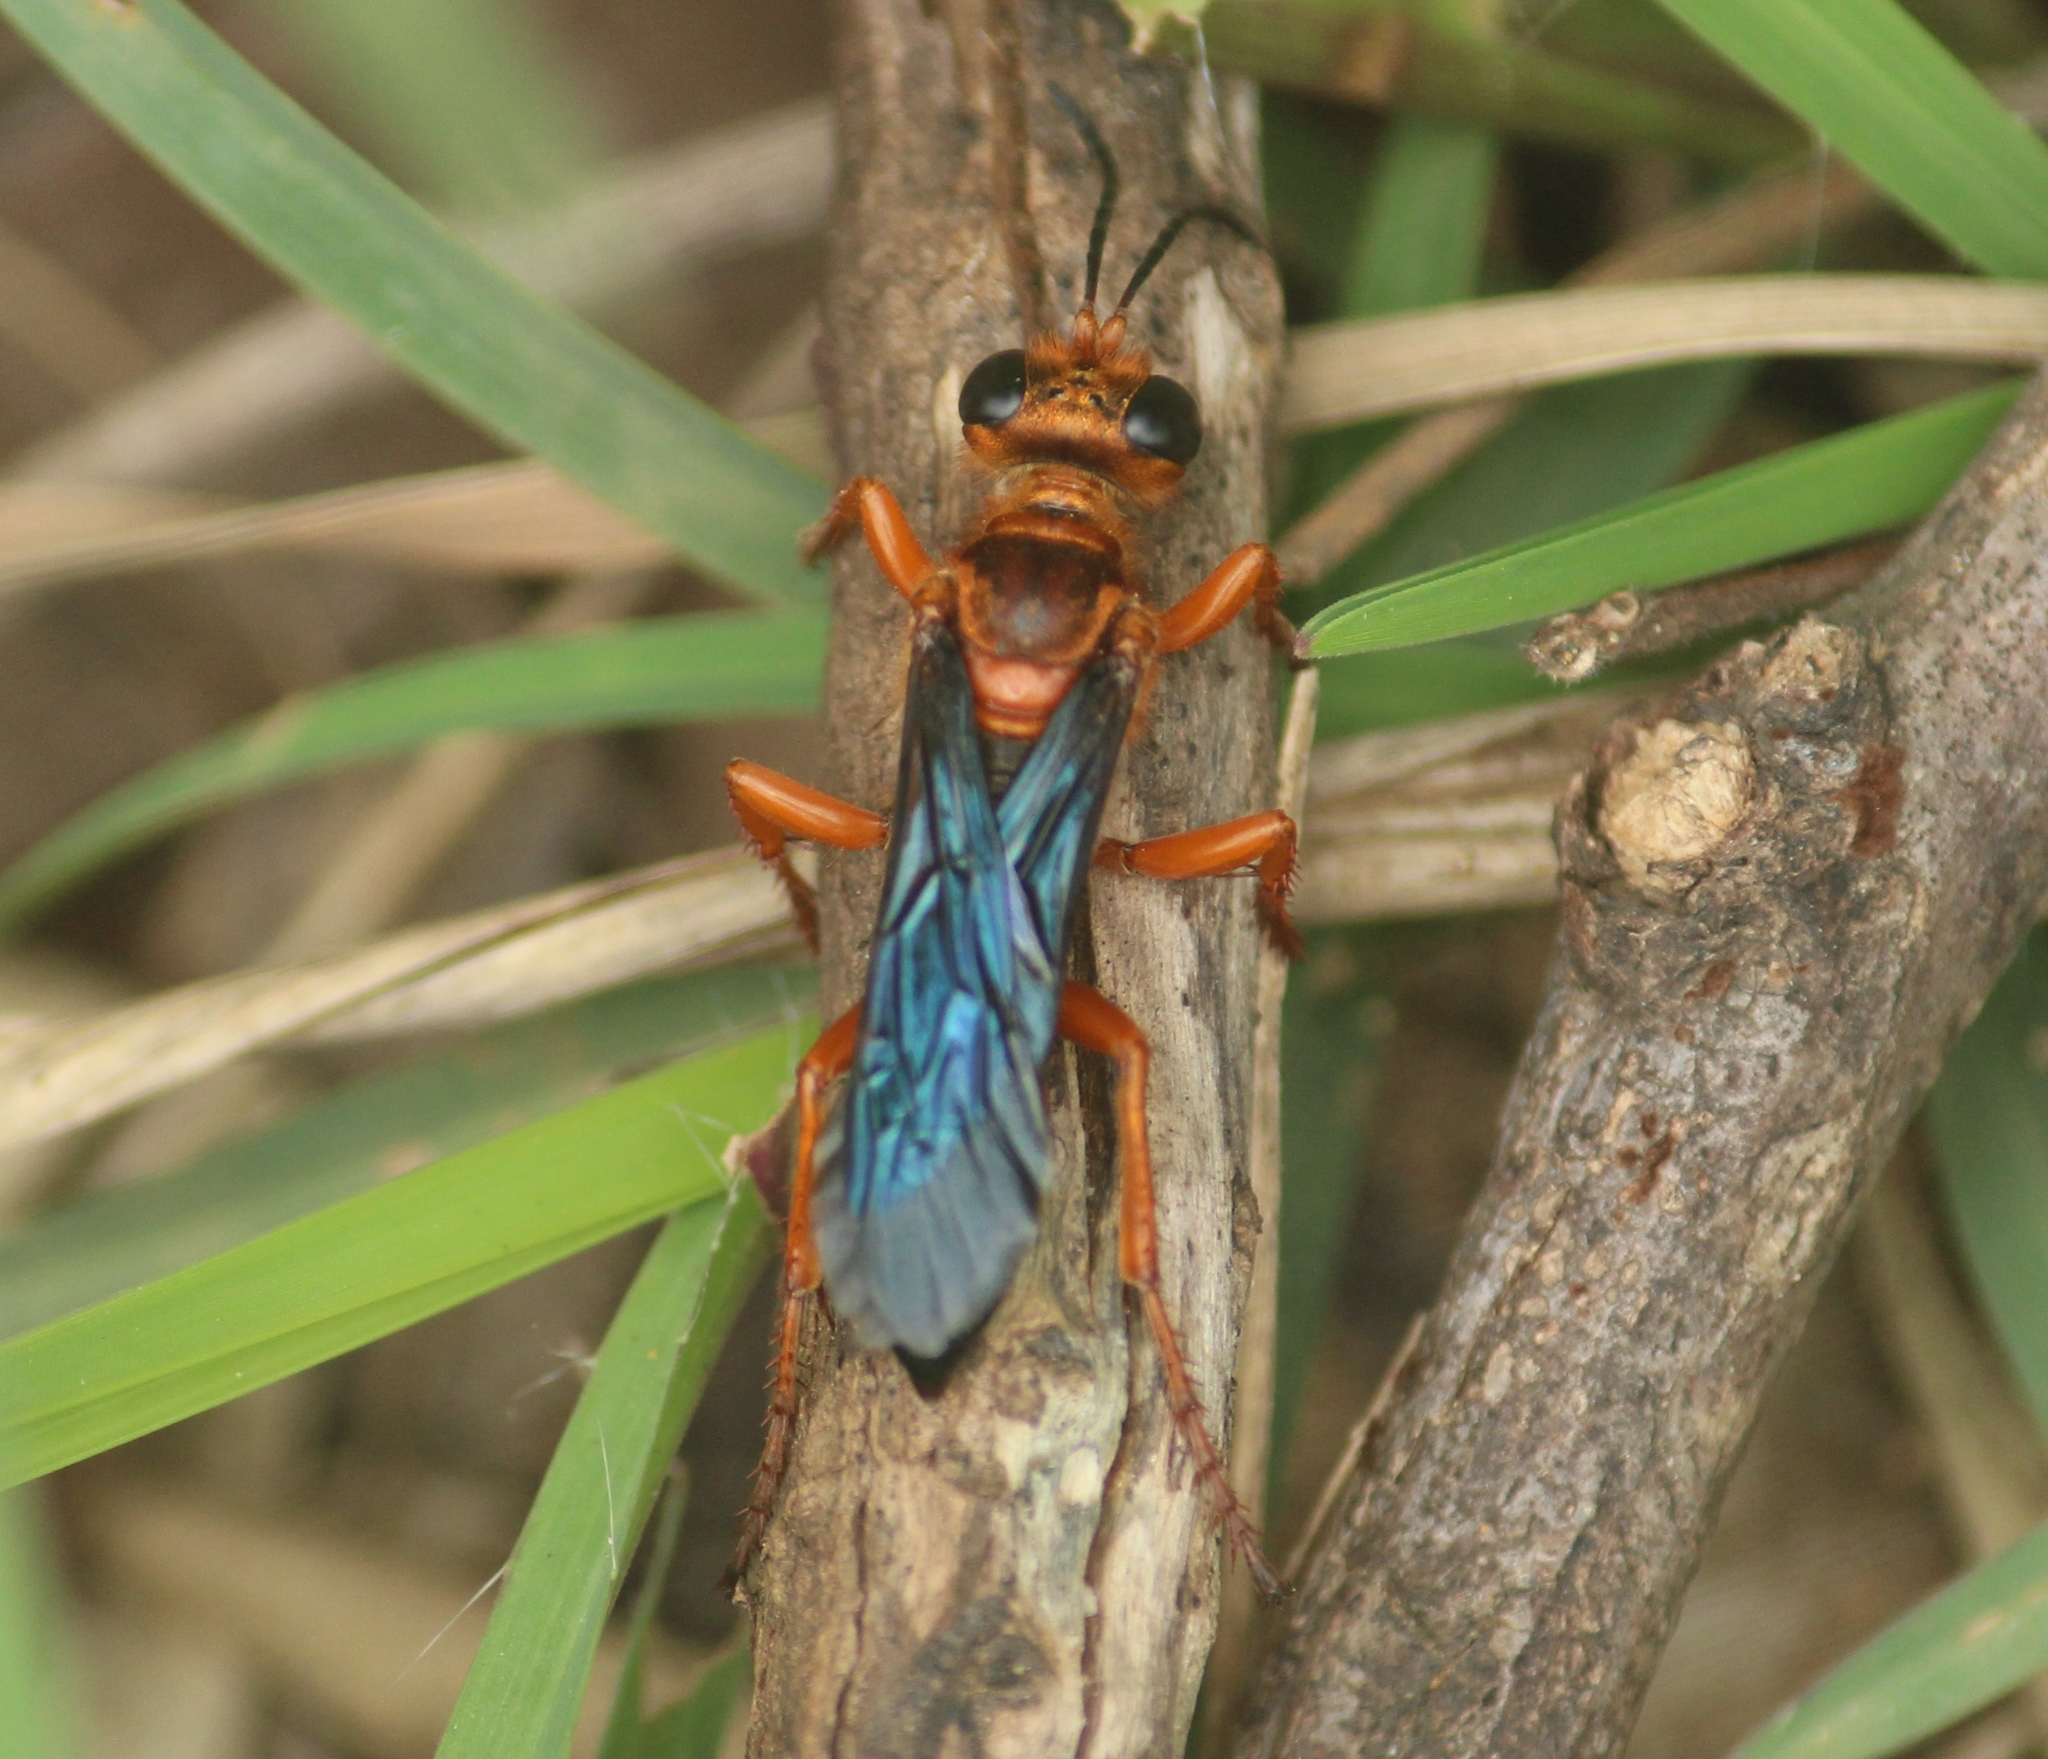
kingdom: Animalia
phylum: Arthropoda
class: Insecta
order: Hymenoptera
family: Sphecidae
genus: Sphex
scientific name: Sphex sericeus
